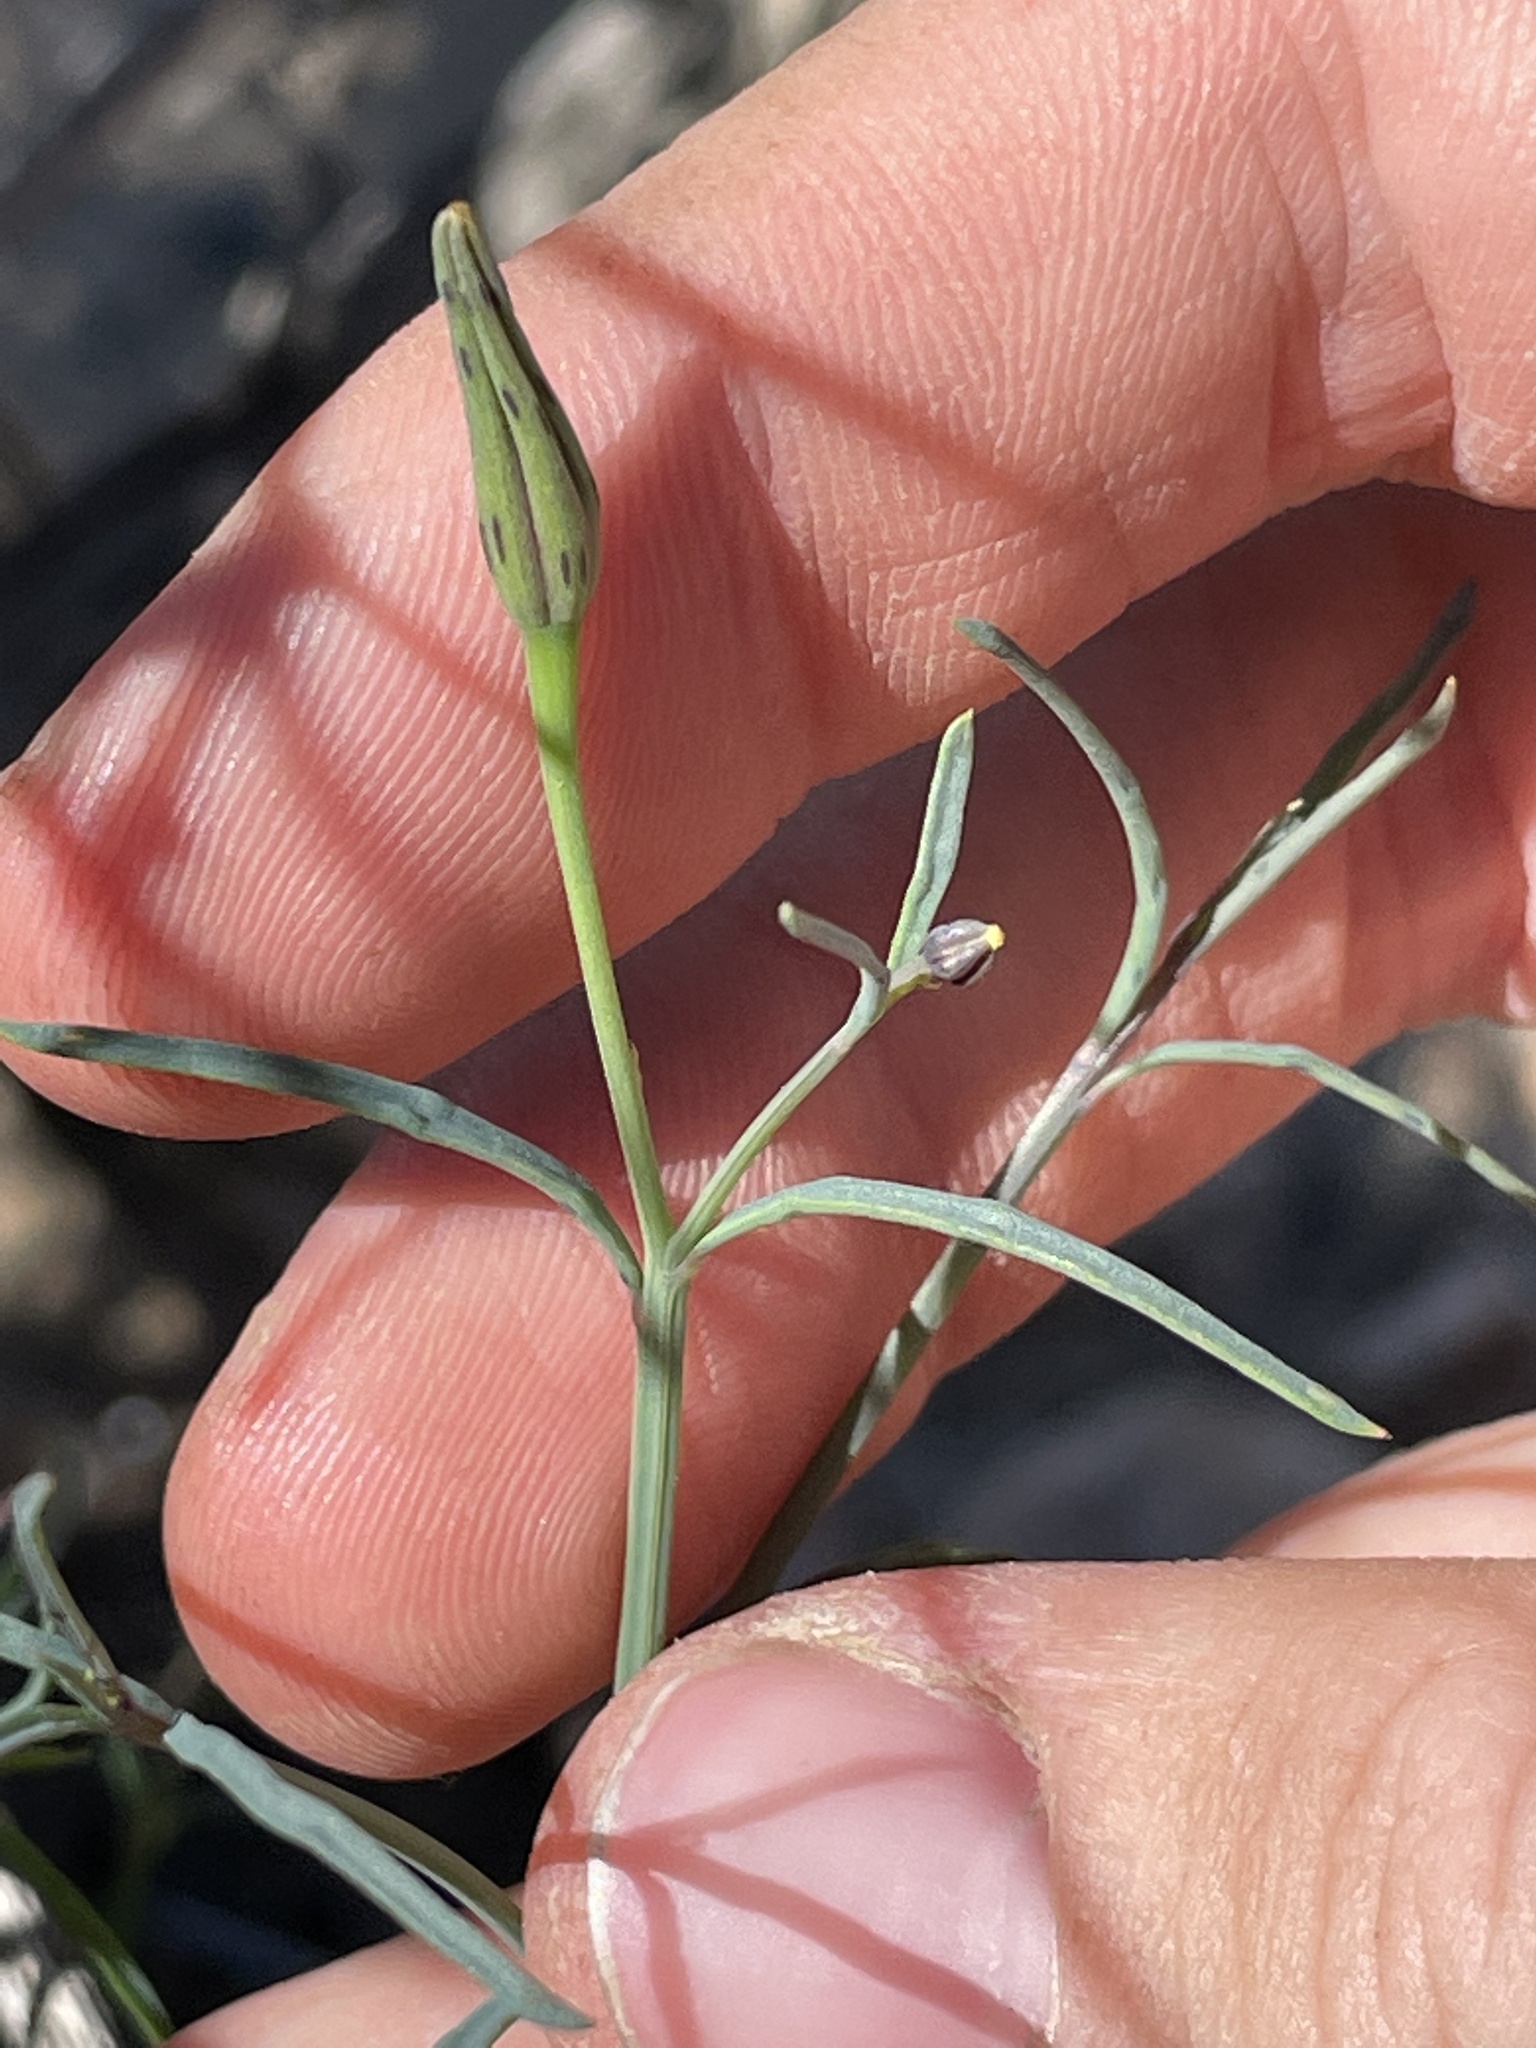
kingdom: Plantae
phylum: Tracheophyta
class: Magnoliopsida
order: Asterales
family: Asteraceae
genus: Porophyllum
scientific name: Porophyllum gracile
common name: Odora
